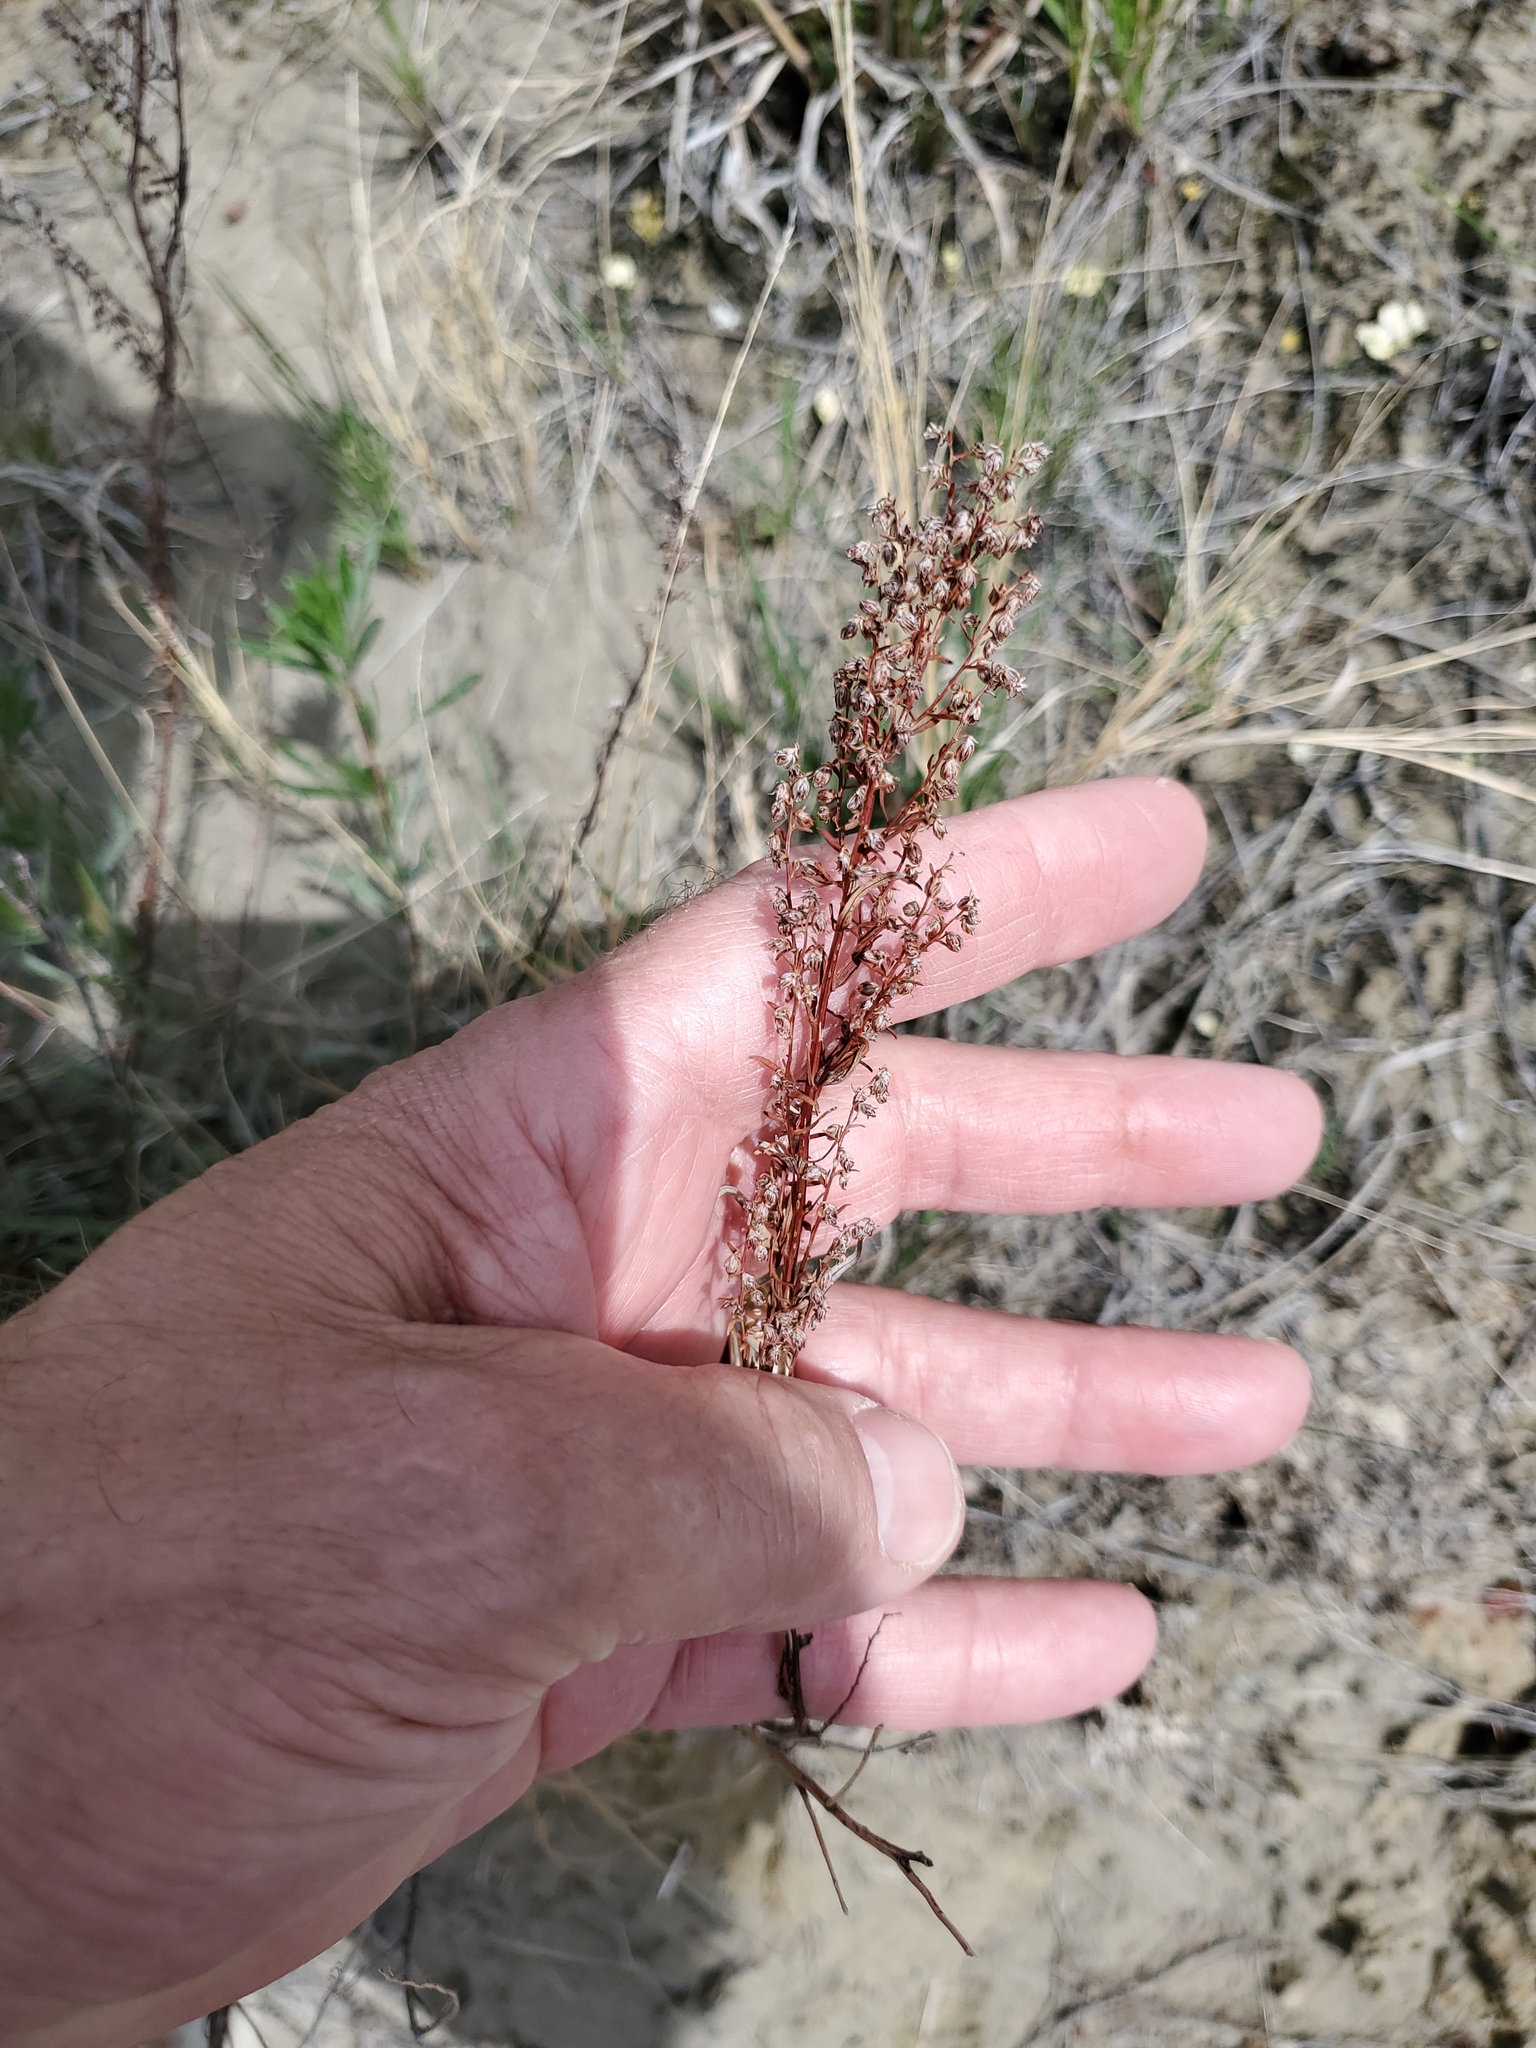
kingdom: Plantae
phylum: Tracheophyta
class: Magnoliopsida
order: Asterales
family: Asteraceae
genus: Artemisia
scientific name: Artemisia campestris
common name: Field wormwood
